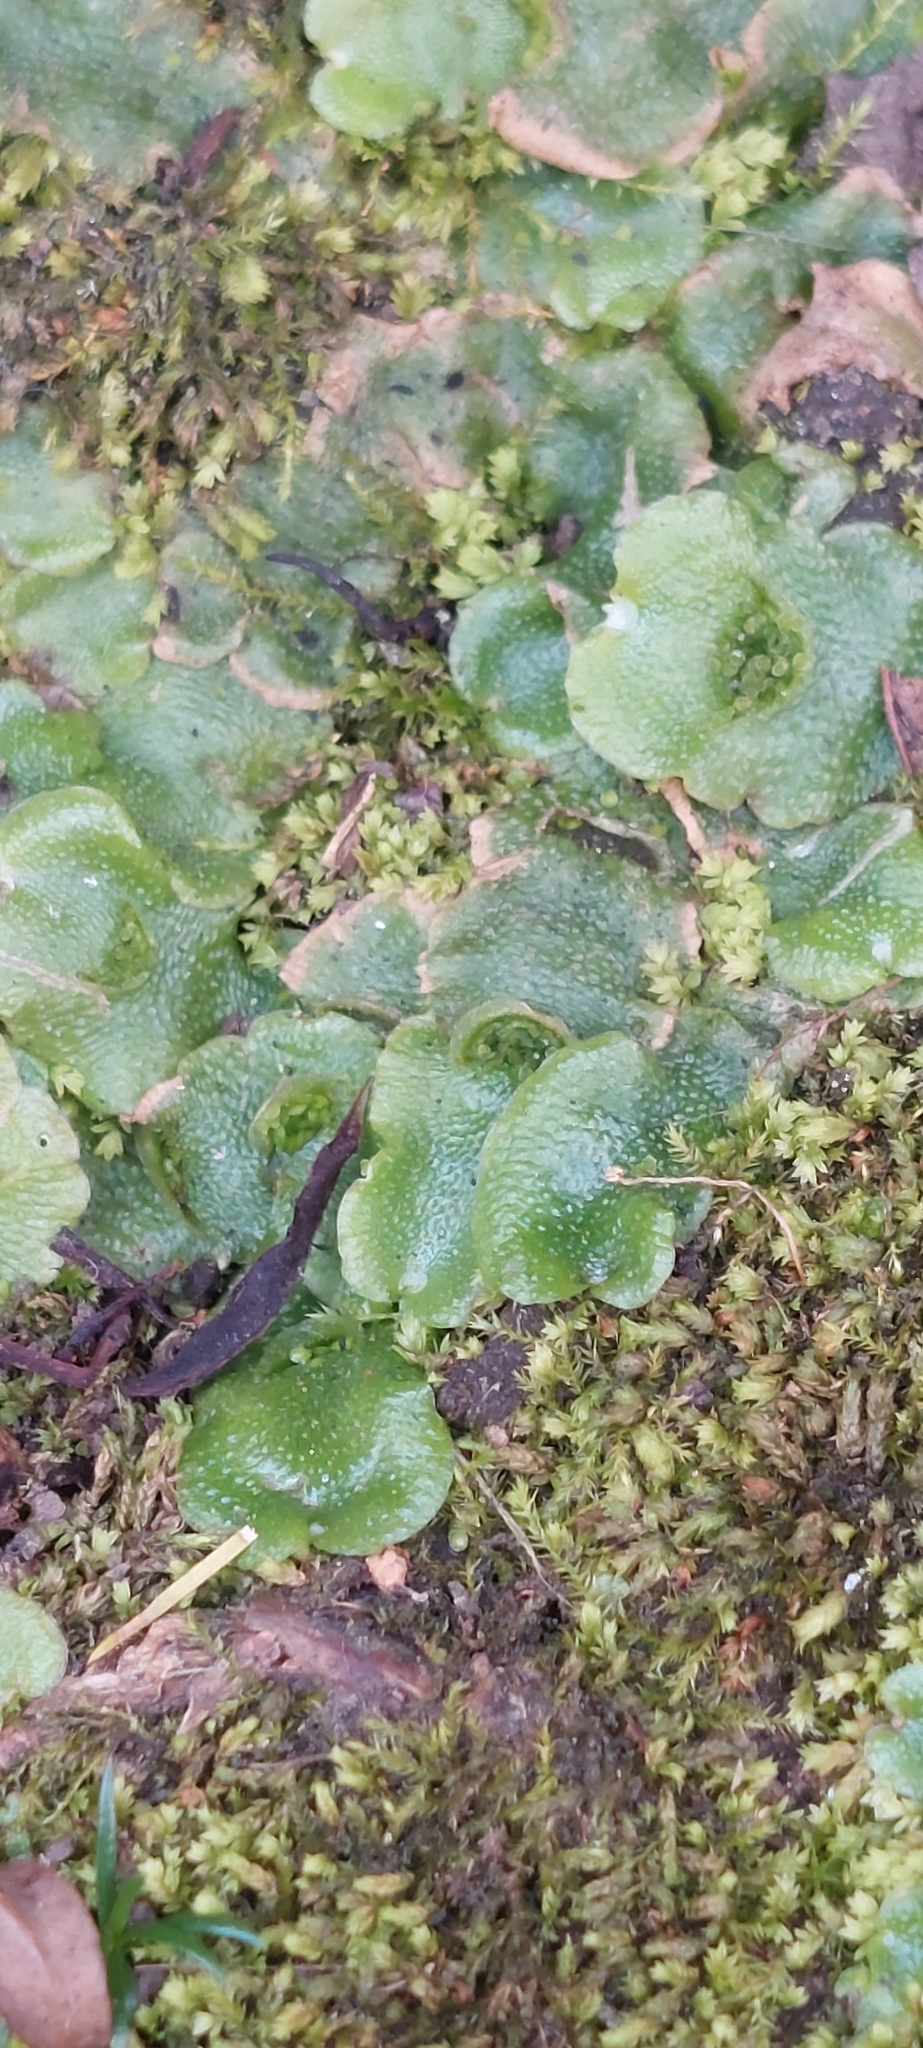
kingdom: Plantae
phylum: Marchantiophyta
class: Marchantiopsida
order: Lunulariales
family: Lunulariaceae
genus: Lunularia
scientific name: Lunularia cruciata
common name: Crescent-cup liverwort
